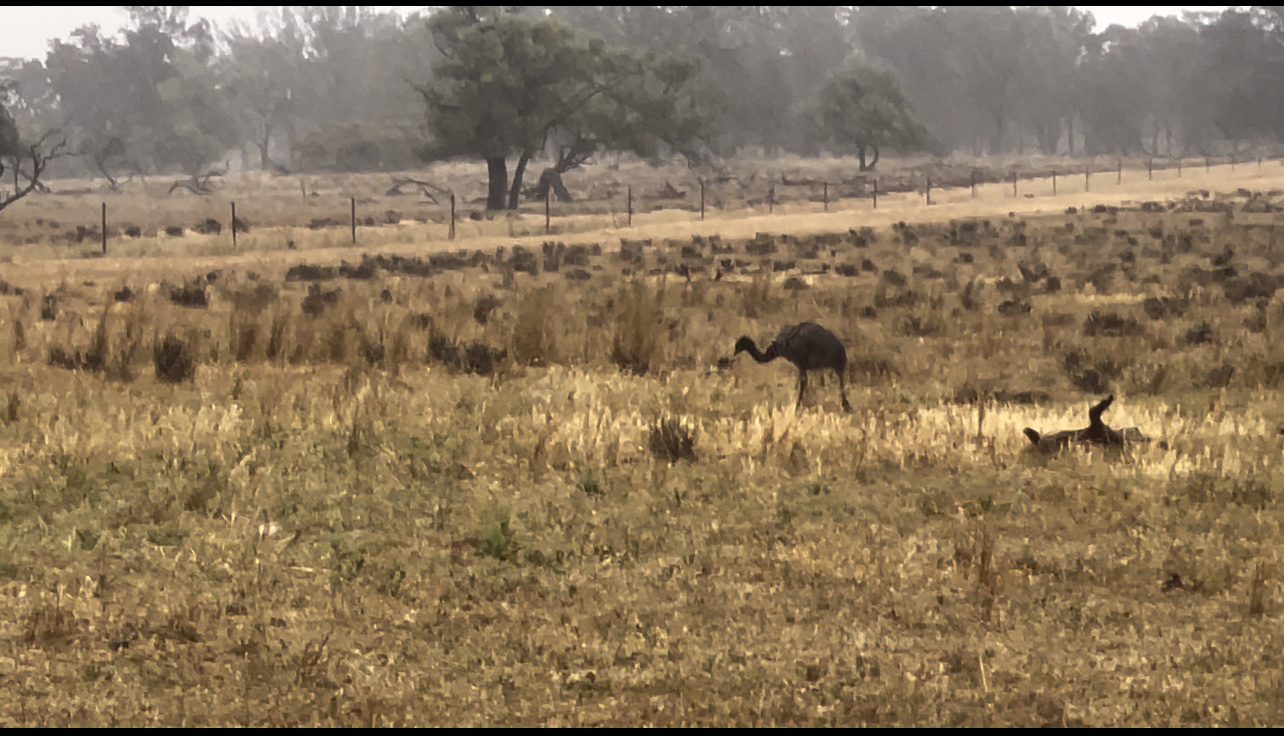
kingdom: Animalia
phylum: Chordata
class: Aves
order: Casuariiformes
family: Dromaiidae
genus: Dromaius
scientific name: Dromaius novaehollandiae
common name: Emu
